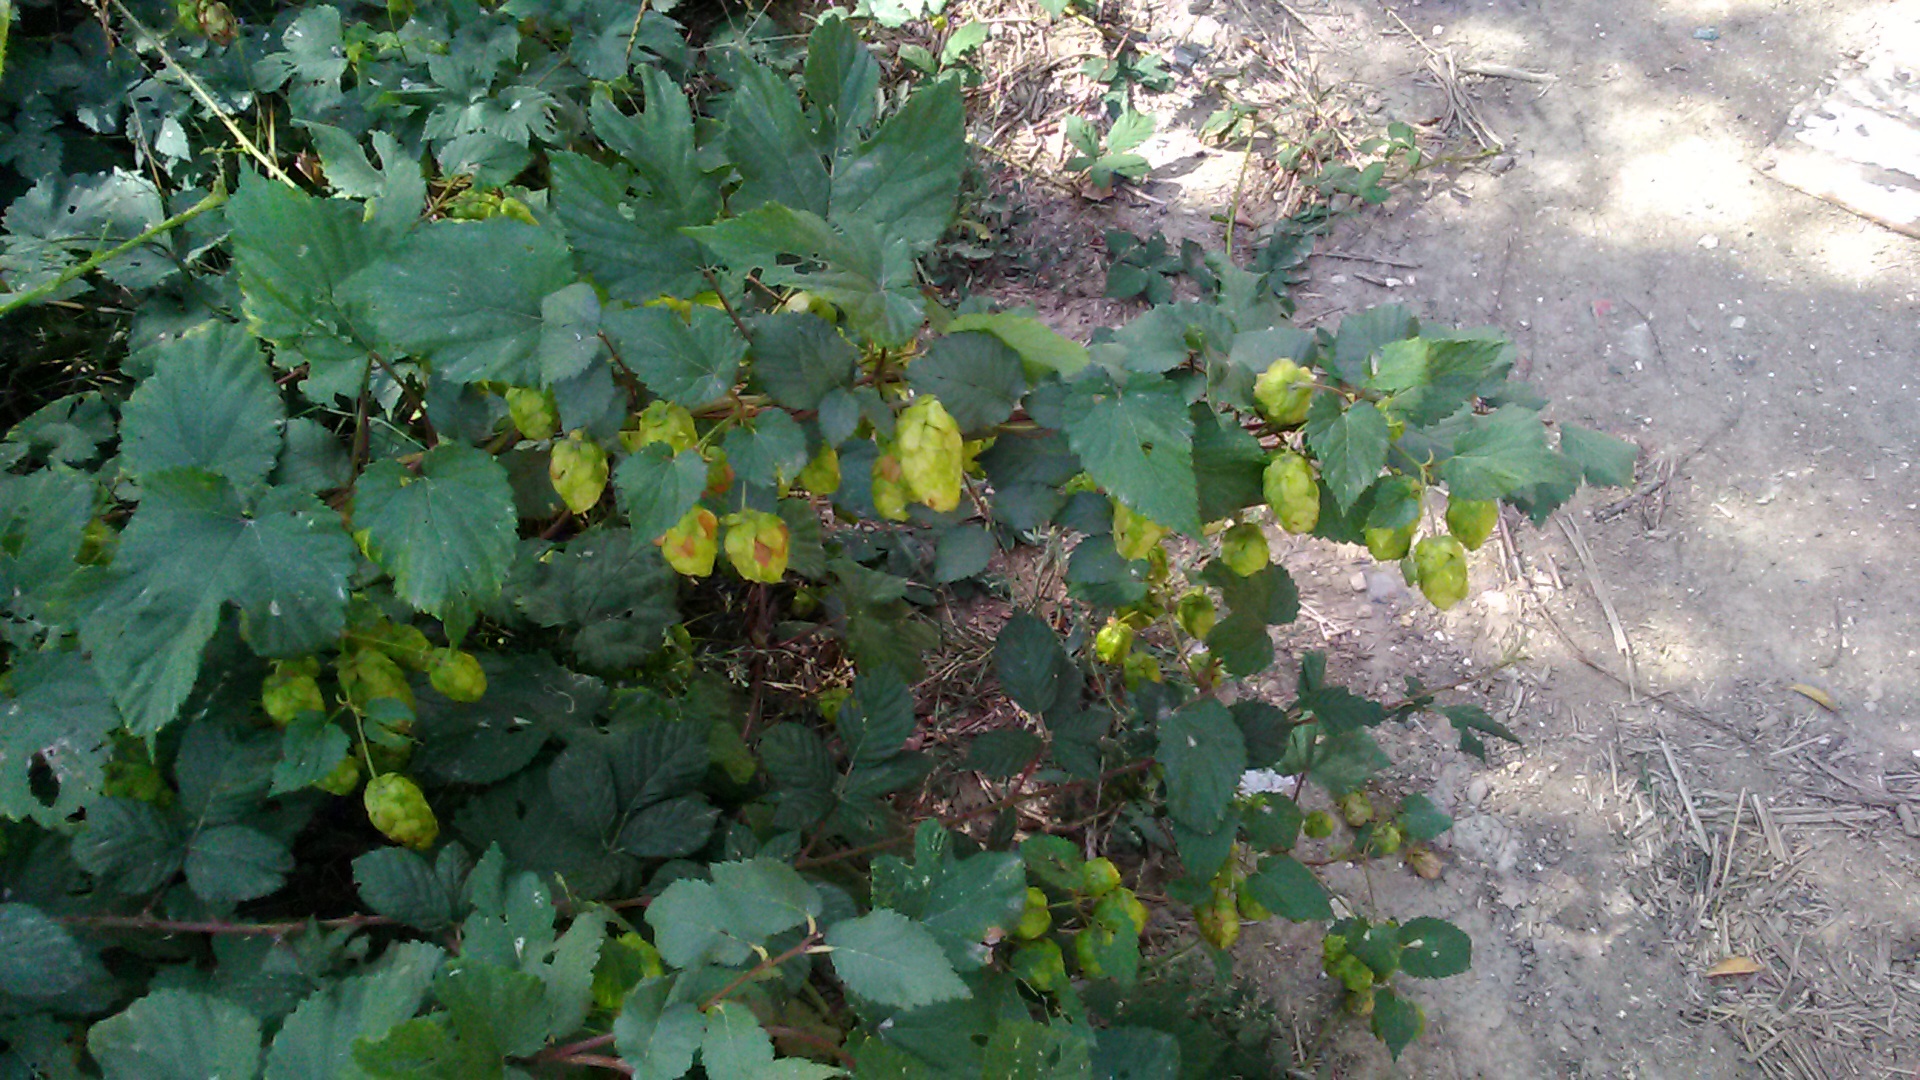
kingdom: Plantae
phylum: Tracheophyta
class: Magnoliopsida
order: Rosales
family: Cannabaceae
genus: Humulus
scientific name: Humulus lupulus
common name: Hop
